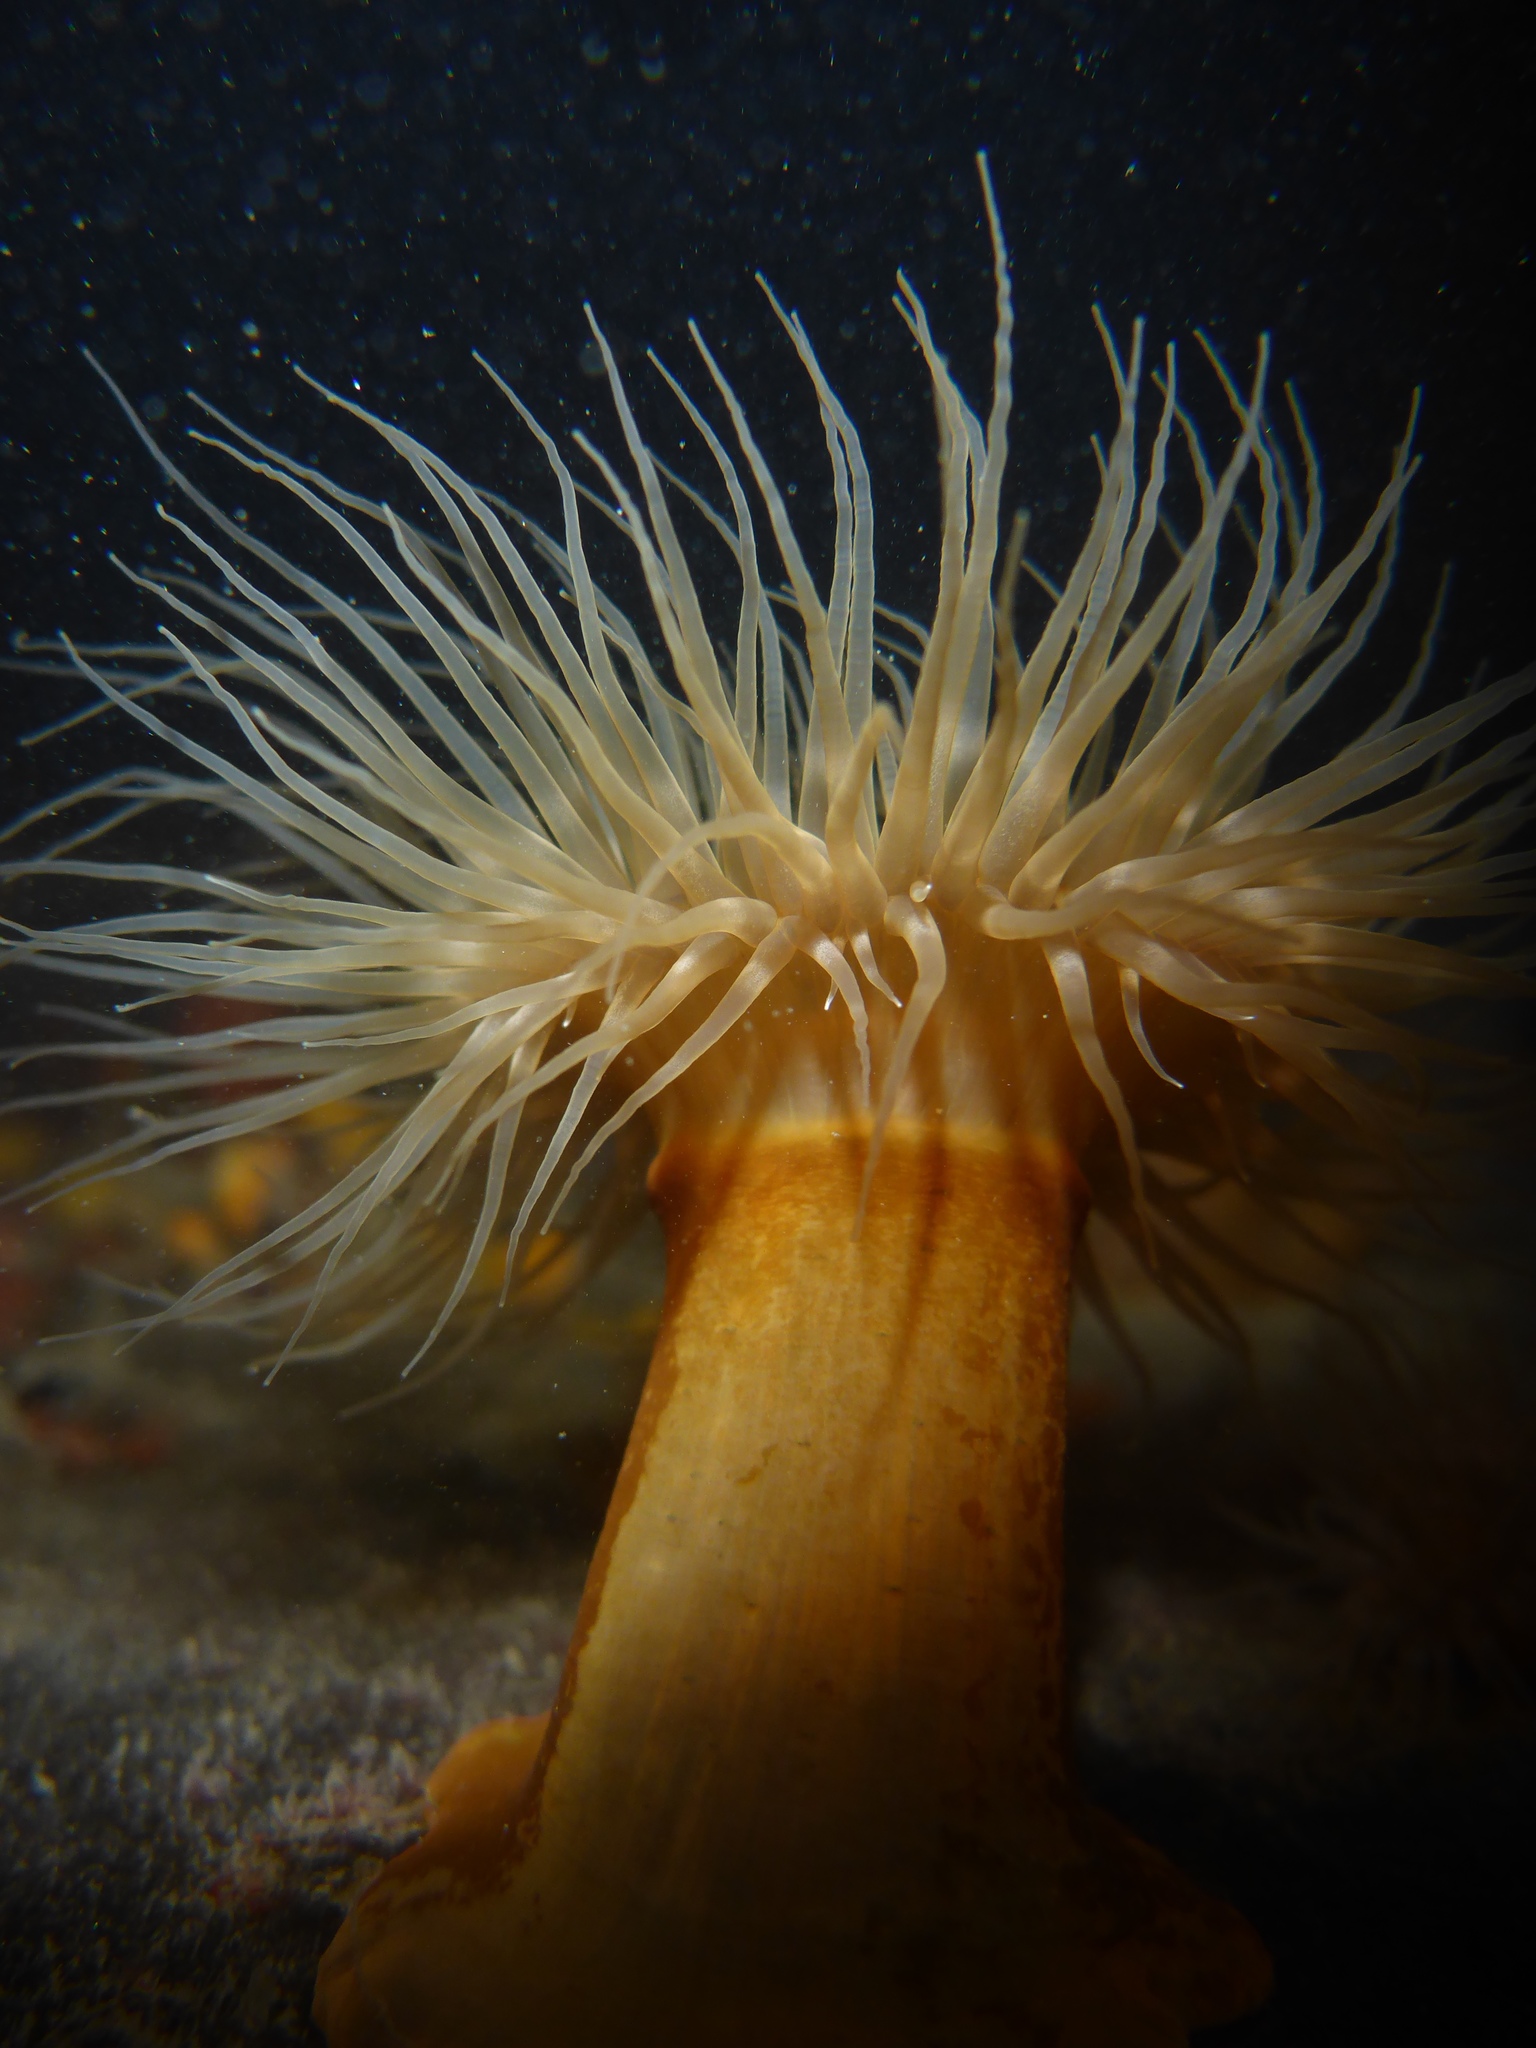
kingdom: Animalia
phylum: Cnidaria
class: Anthozoa
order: Actiniaria
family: Metridiidae
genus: Metridium
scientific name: Metridium senile
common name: Clonal plumose anemone
